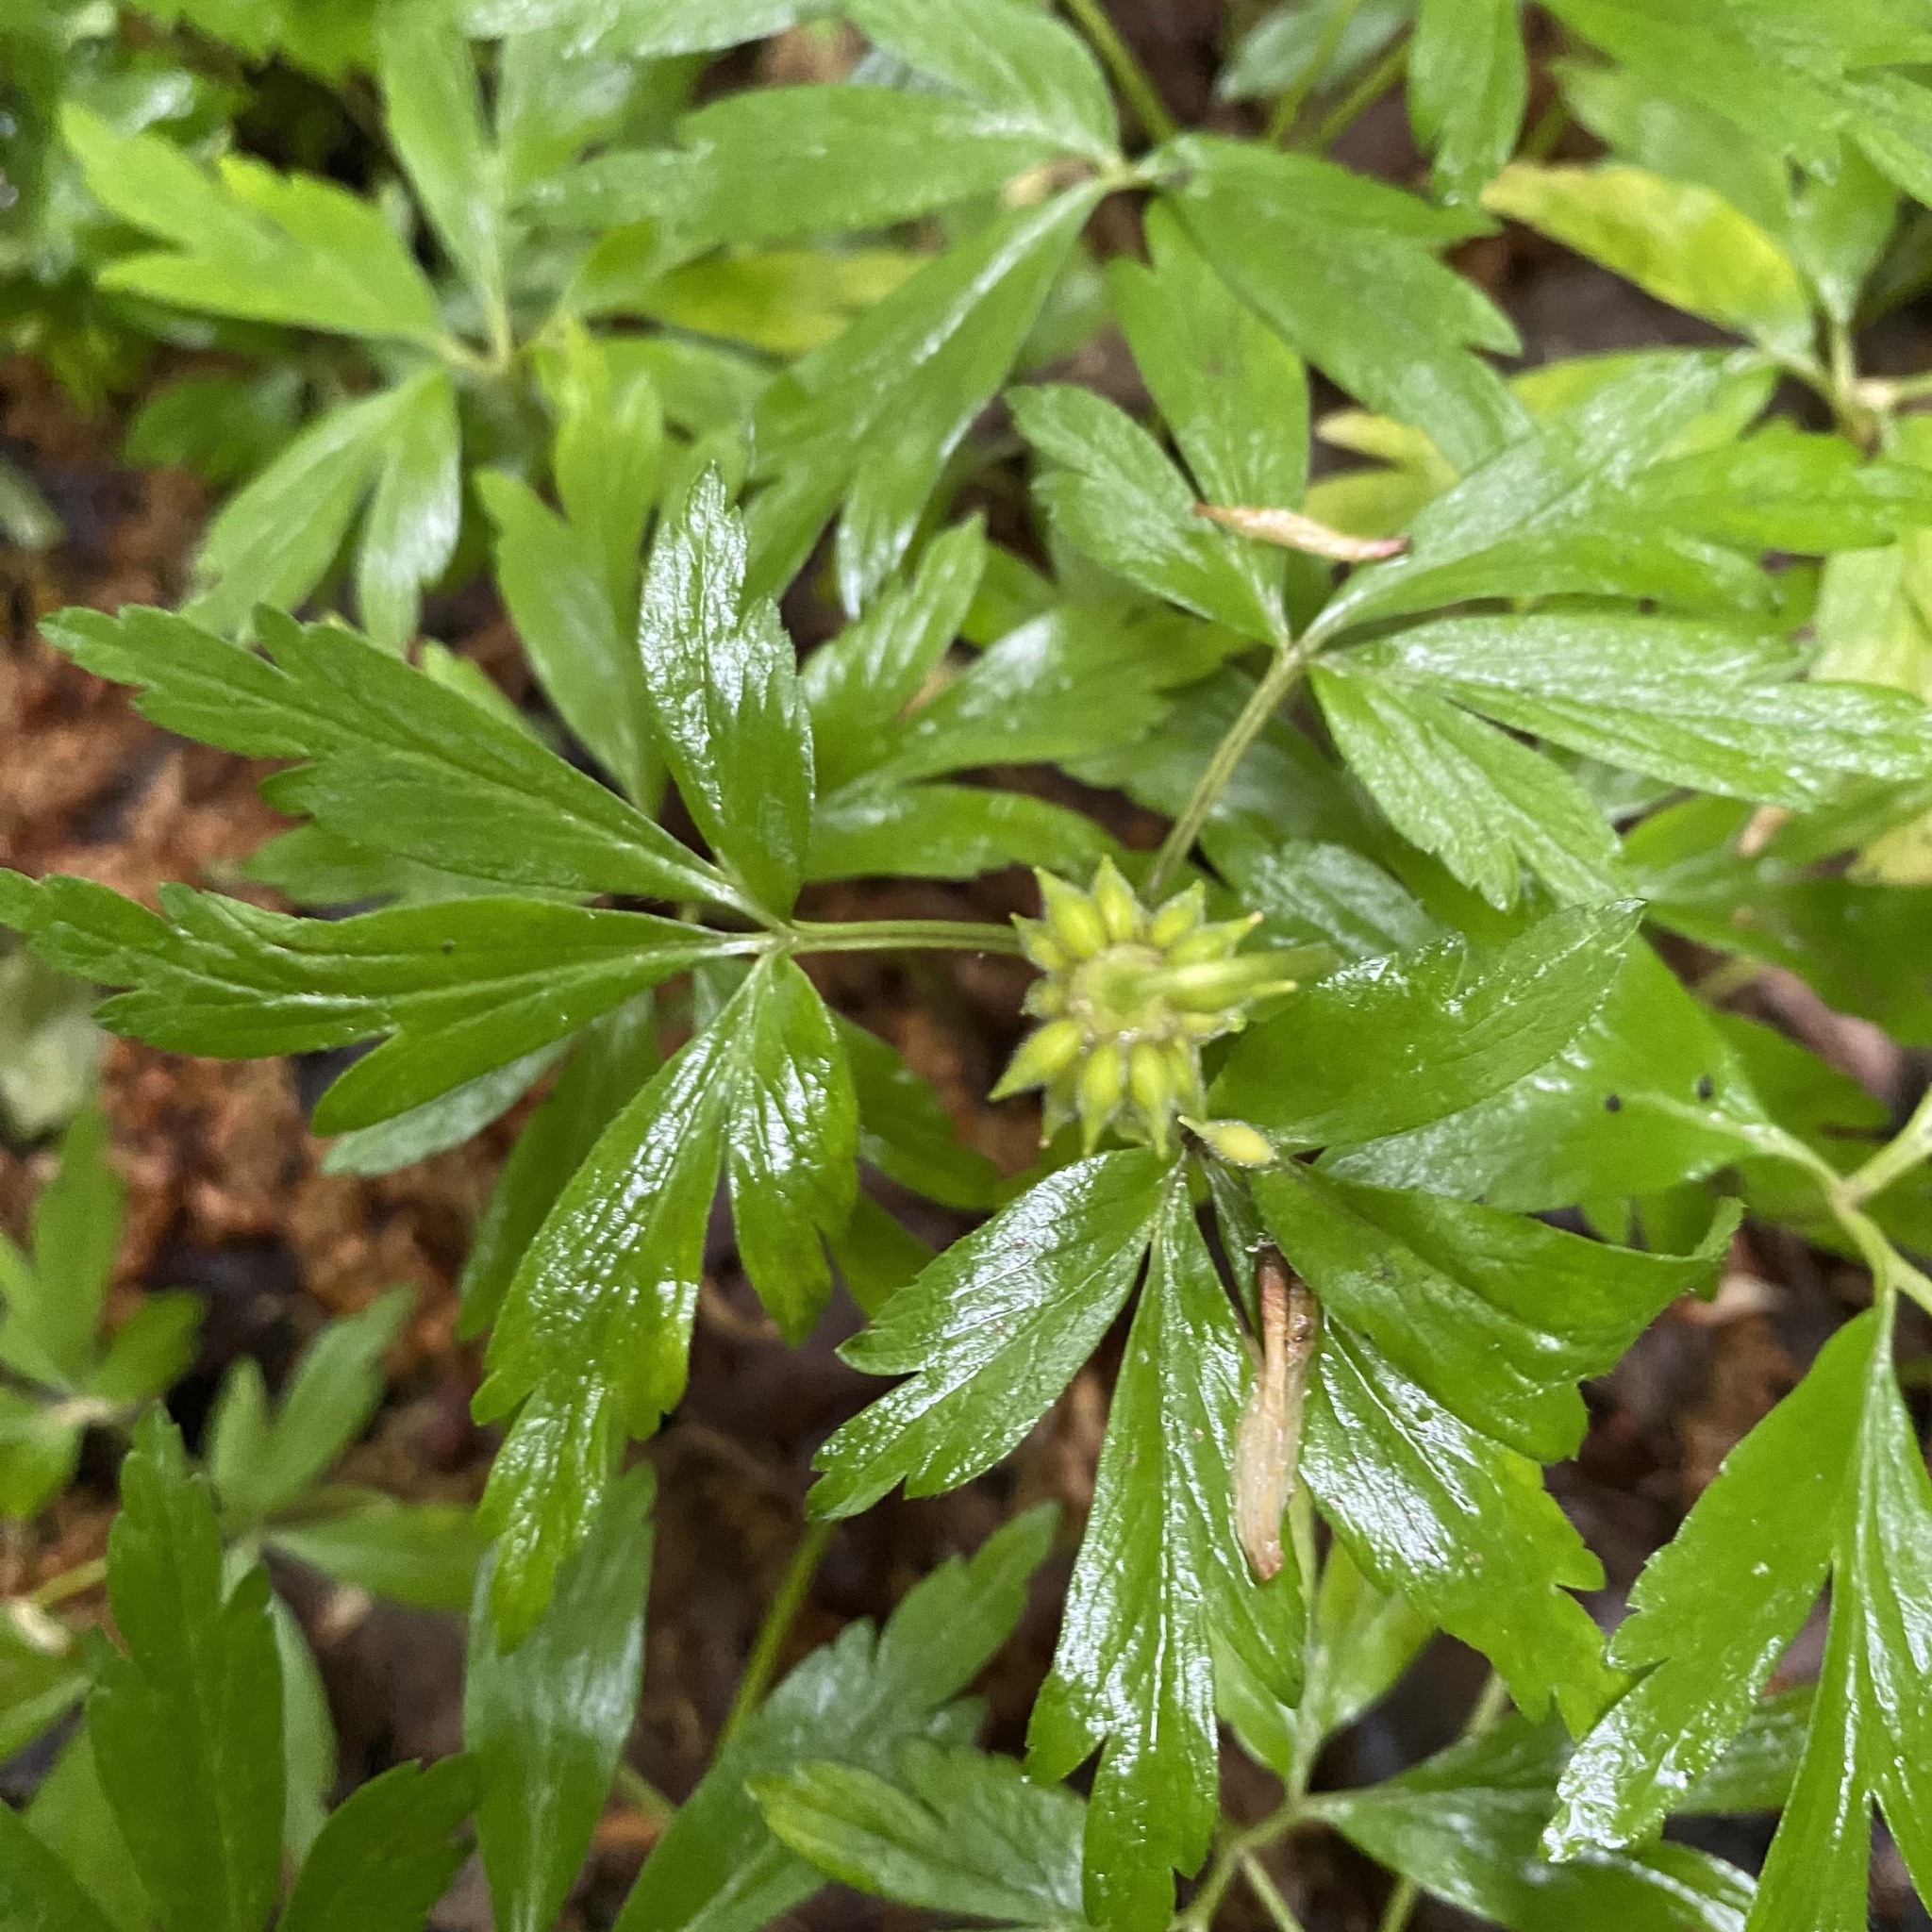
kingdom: Plantae
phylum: Tracheophyta
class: Magnoliopsida
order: Ranunculales
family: Ranunculaceae
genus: Anemone
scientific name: Anemone nemorosa
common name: Wood anemone
